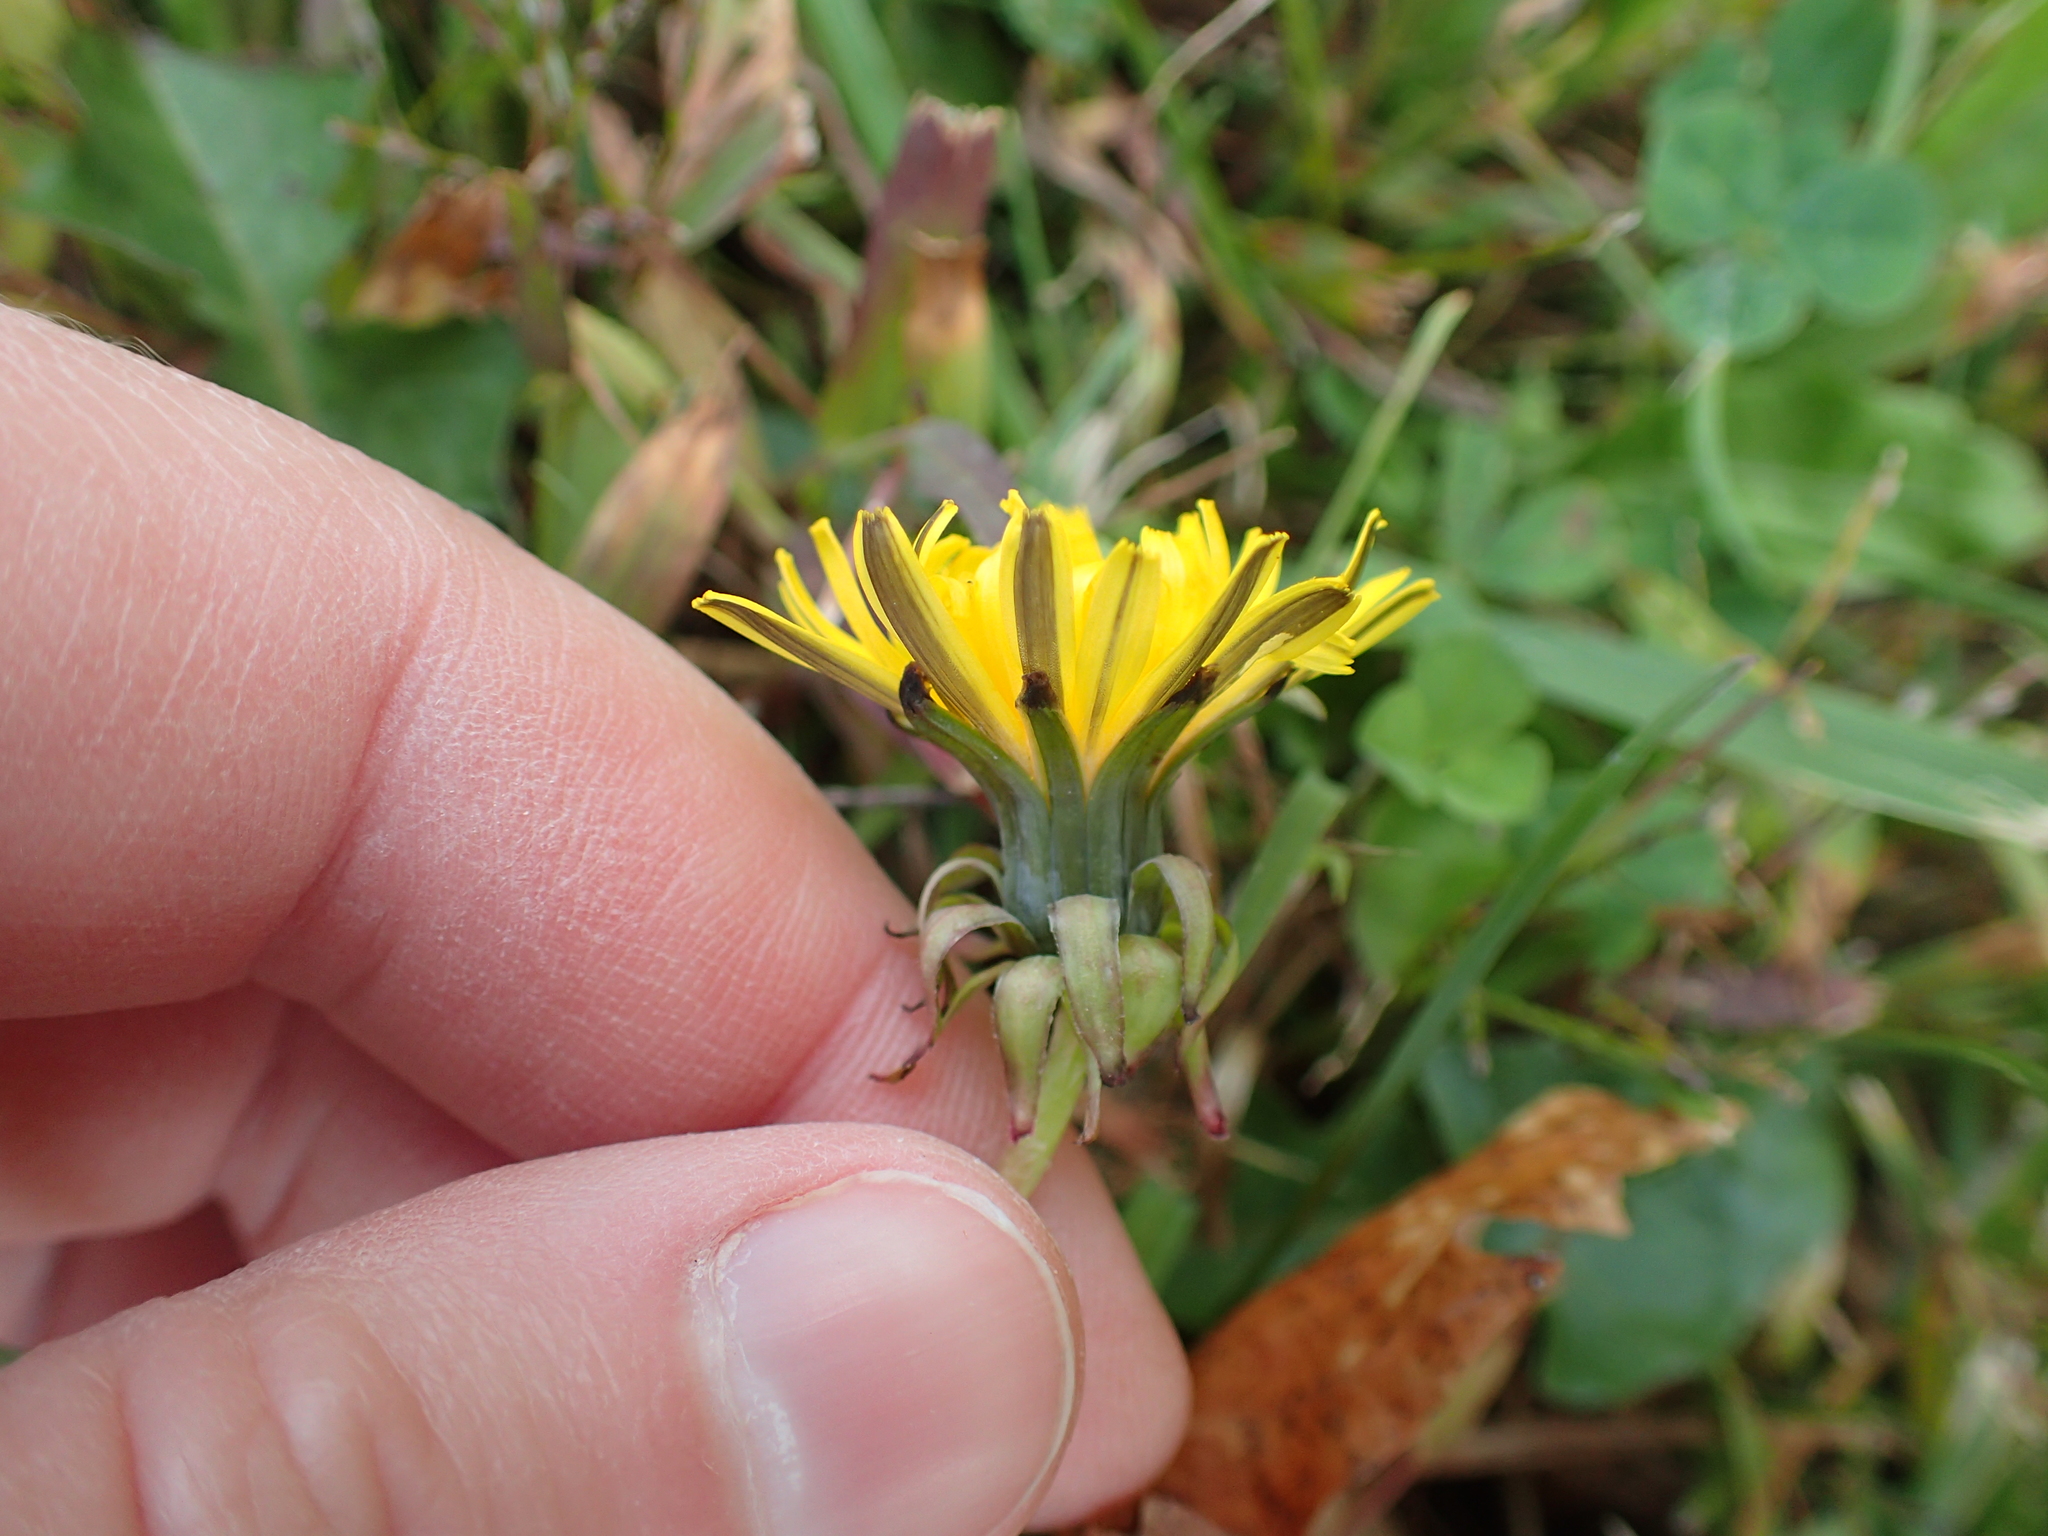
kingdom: Plantae
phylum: Tracheophyta
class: Magnoliopsida
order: Asterales
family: Asteraceae
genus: Taraxacum
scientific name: Taraxacum officinale
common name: Common dandelion
